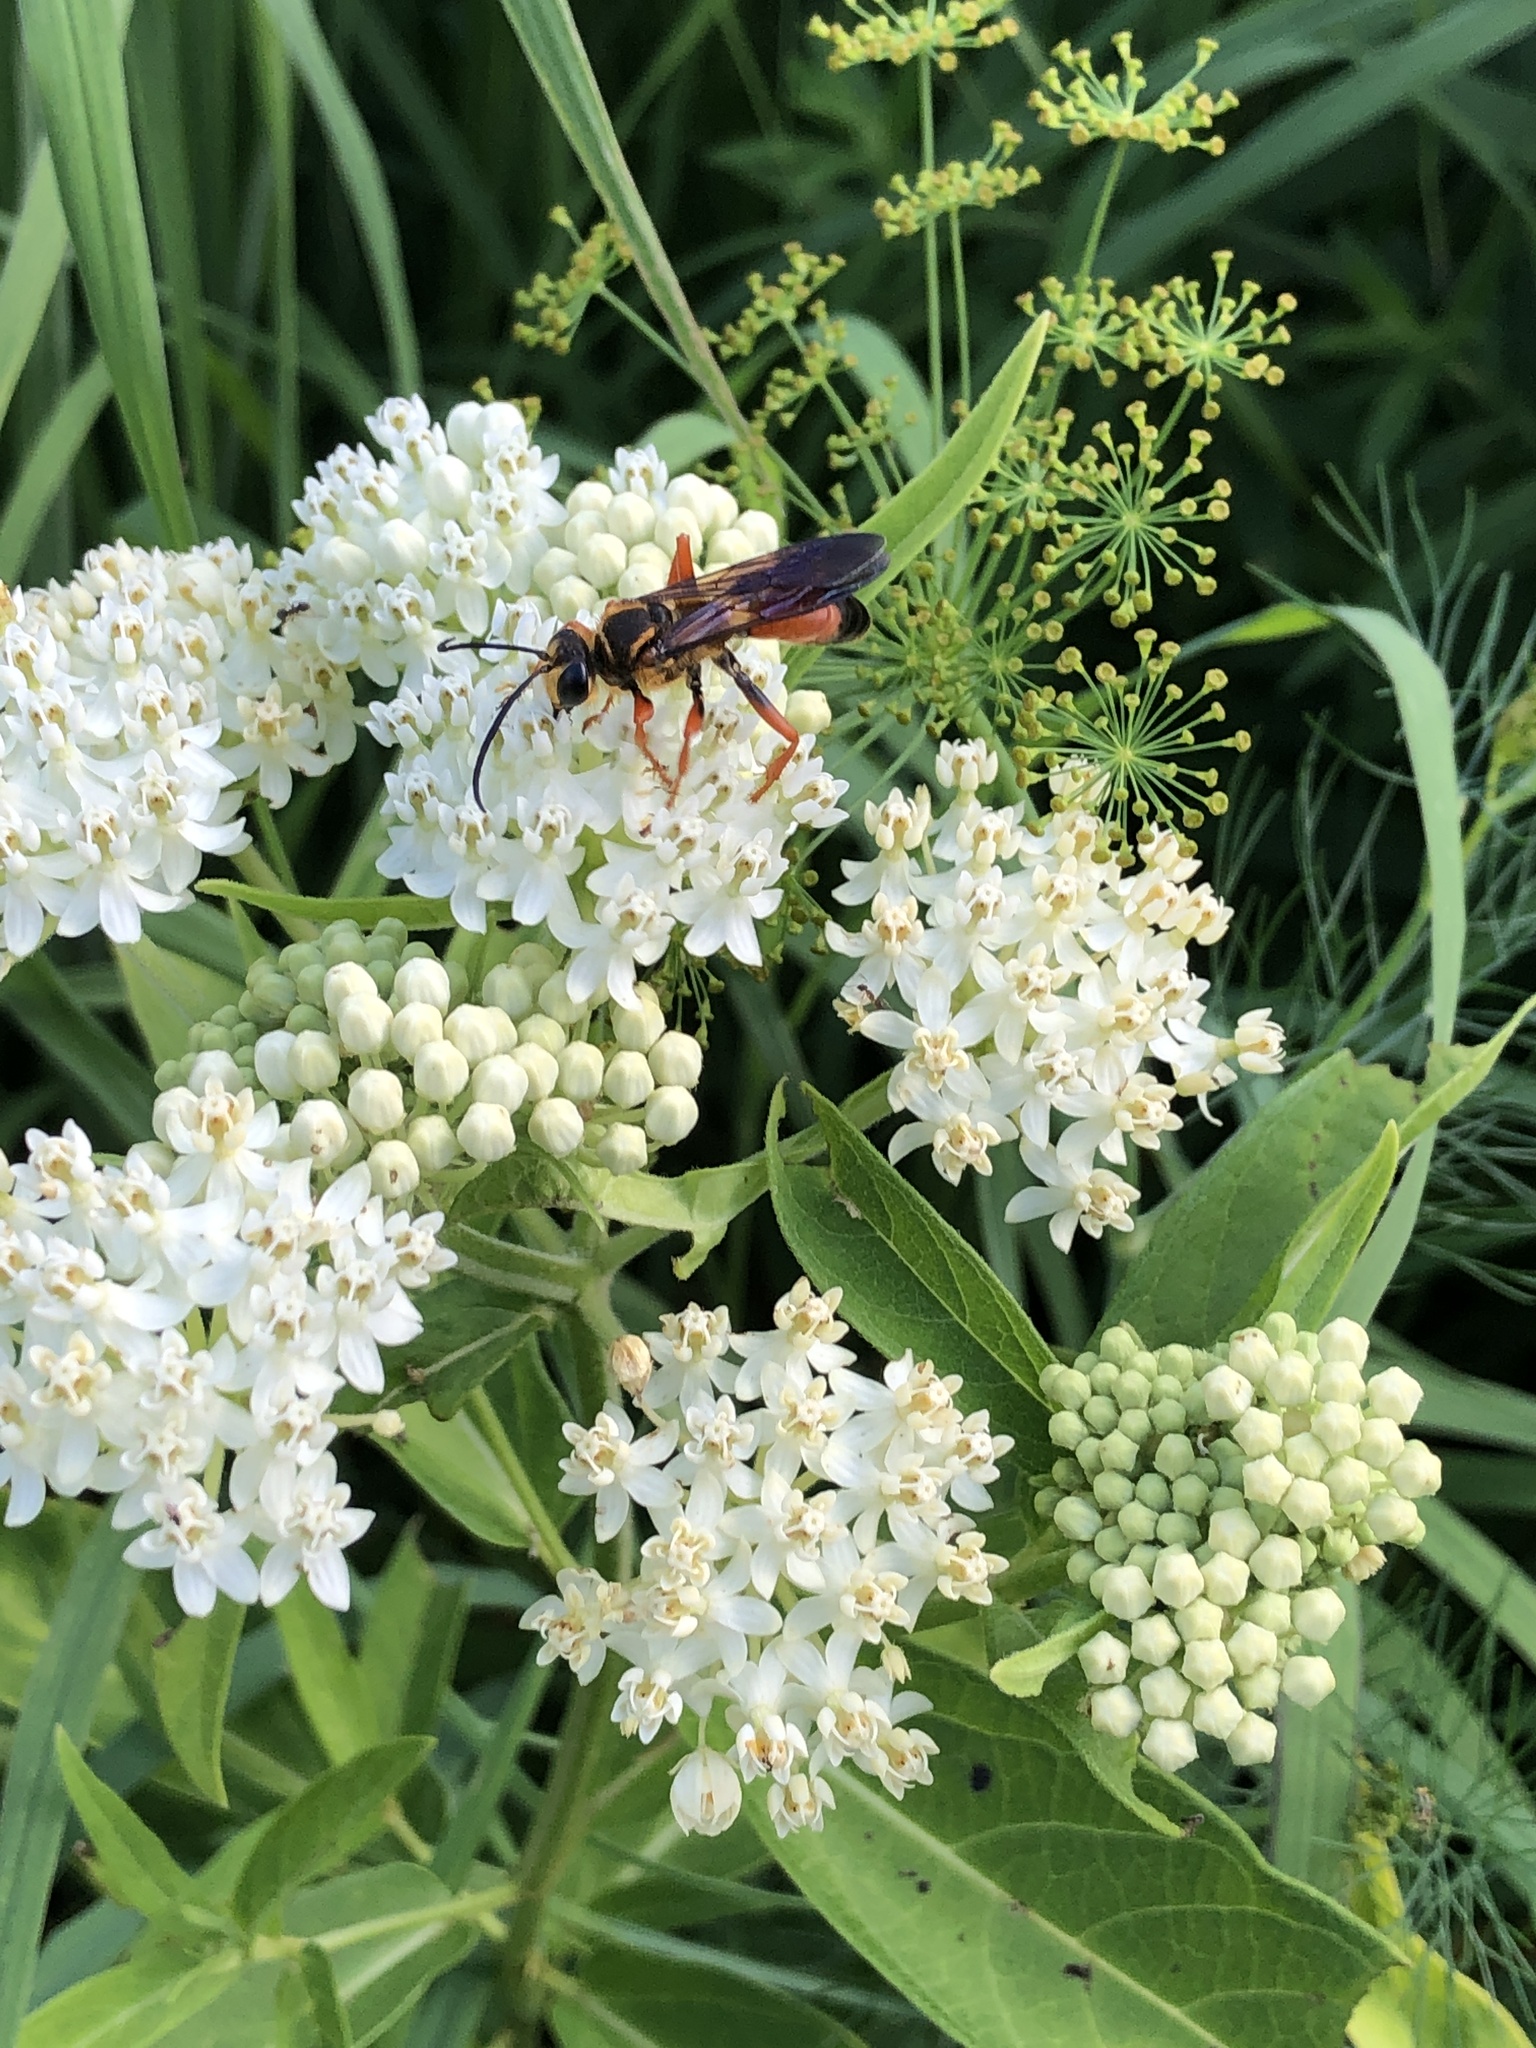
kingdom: Animalia
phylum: Arthropoda
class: Insecta
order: Hymenoptera
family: Sphecidae
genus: Sphex
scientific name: Sphex ichneumoneus
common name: Great golden digger wasp
